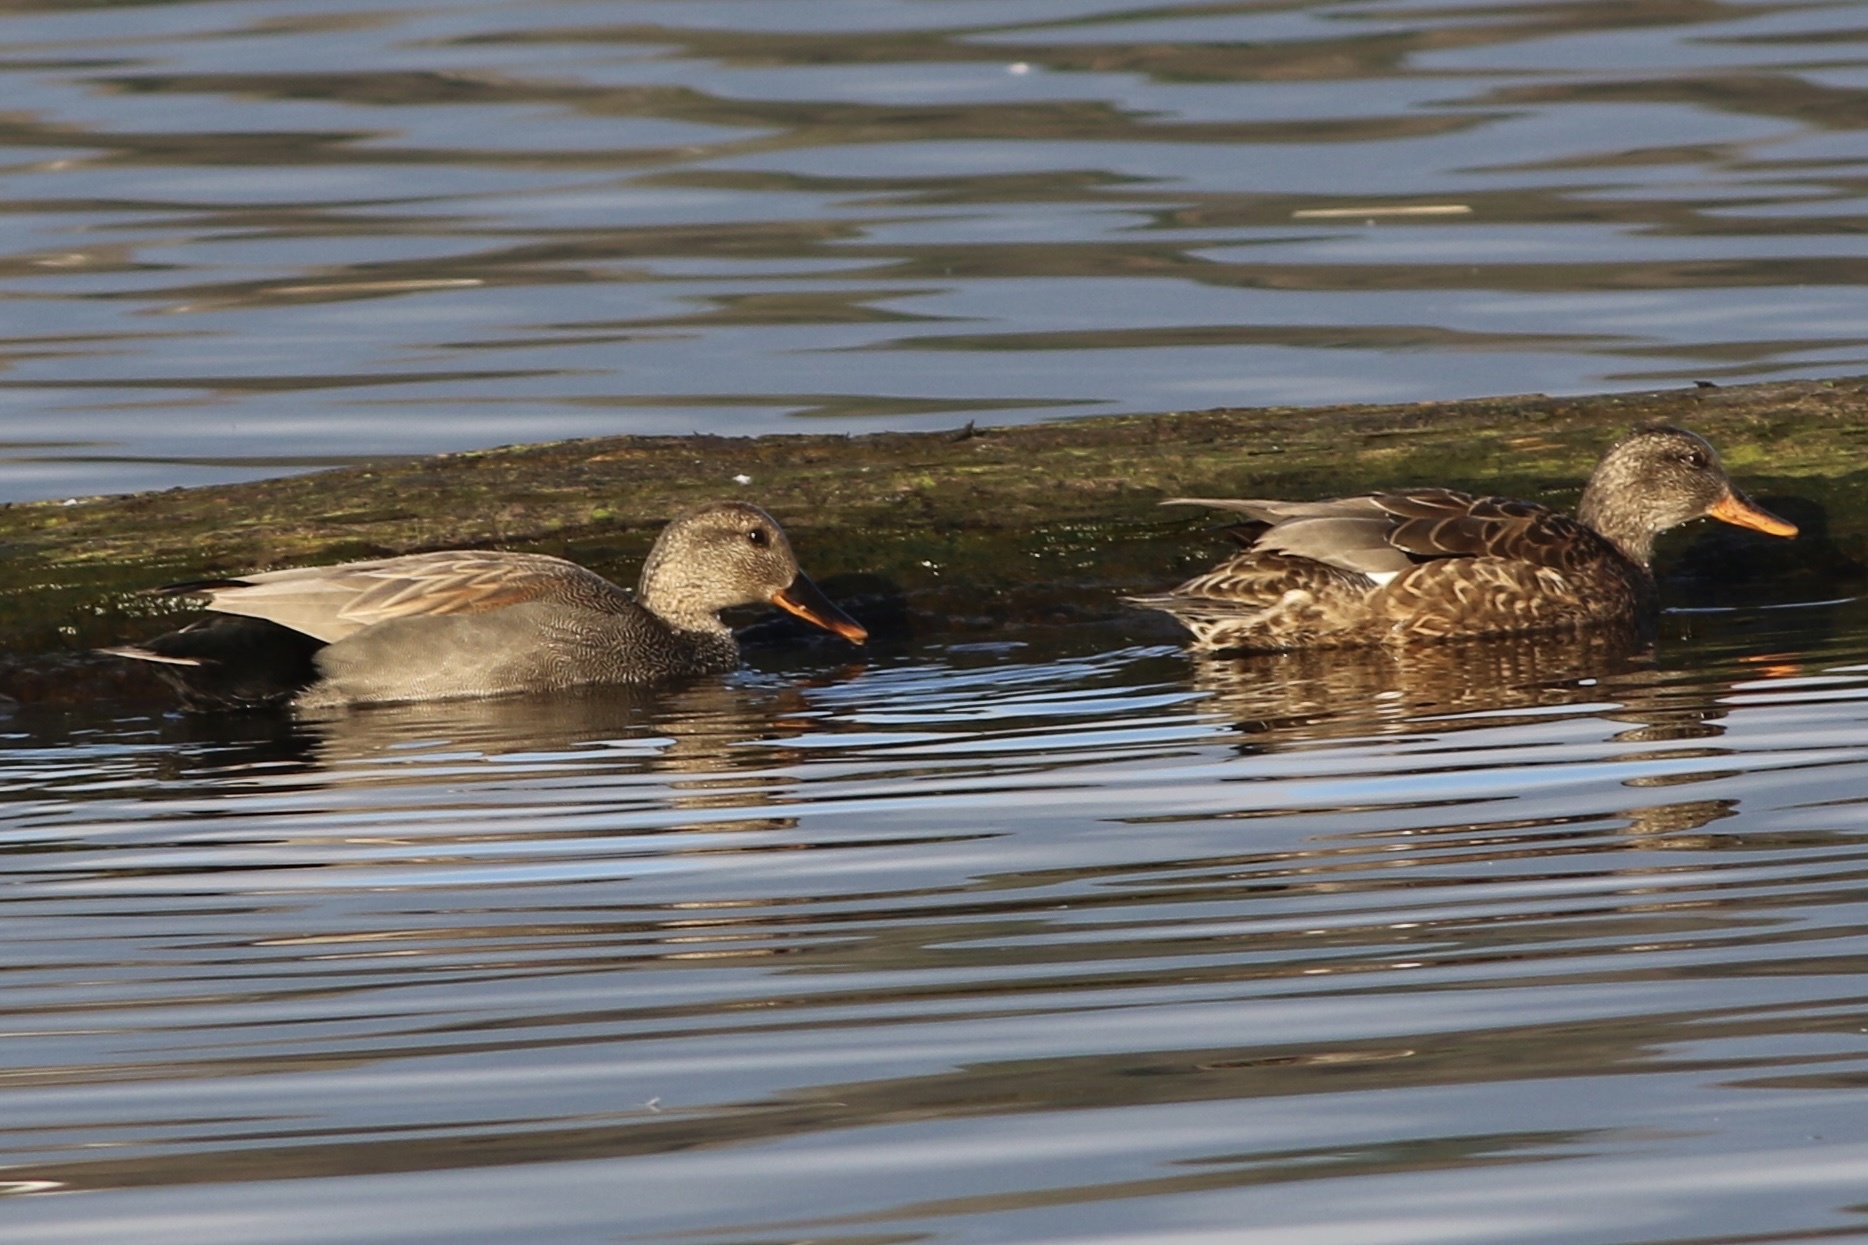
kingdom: Animalia
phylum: Chordata
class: Aves
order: Anseriformes
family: Anatidae
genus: Mareca
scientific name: Mareca strepera
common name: Gadwall
